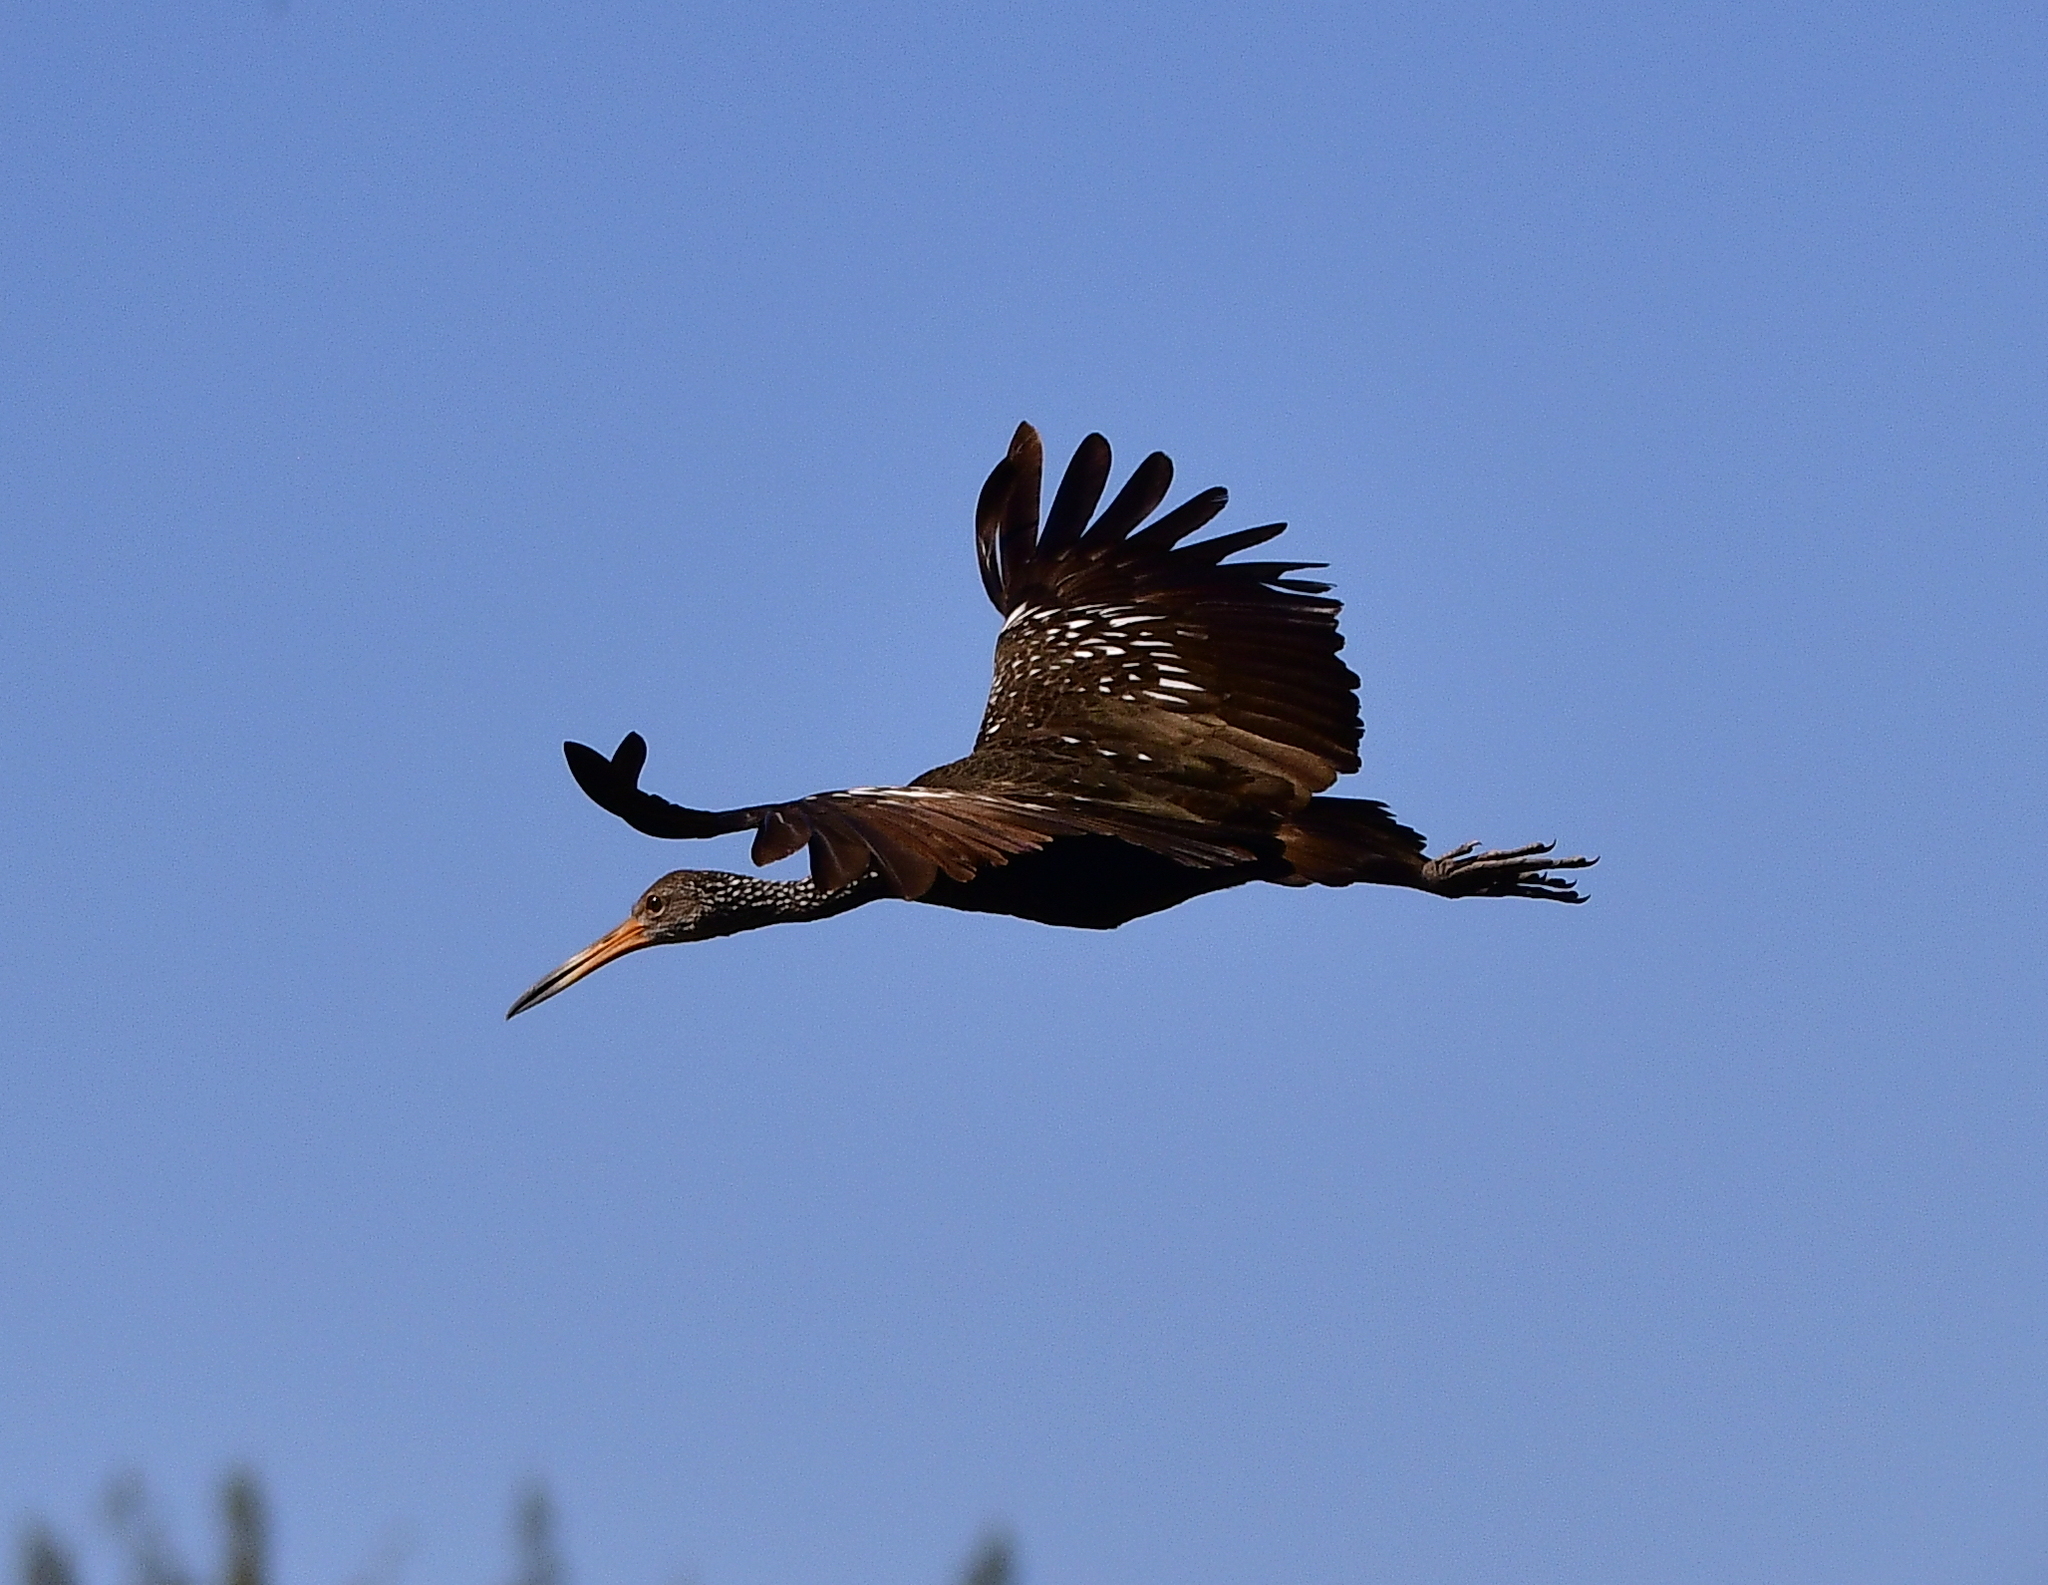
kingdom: Animalia
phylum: Chordata
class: Aves
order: Gruiformes
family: Aramidae
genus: Aramus
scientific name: Aramus guarauna
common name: Limpkin
